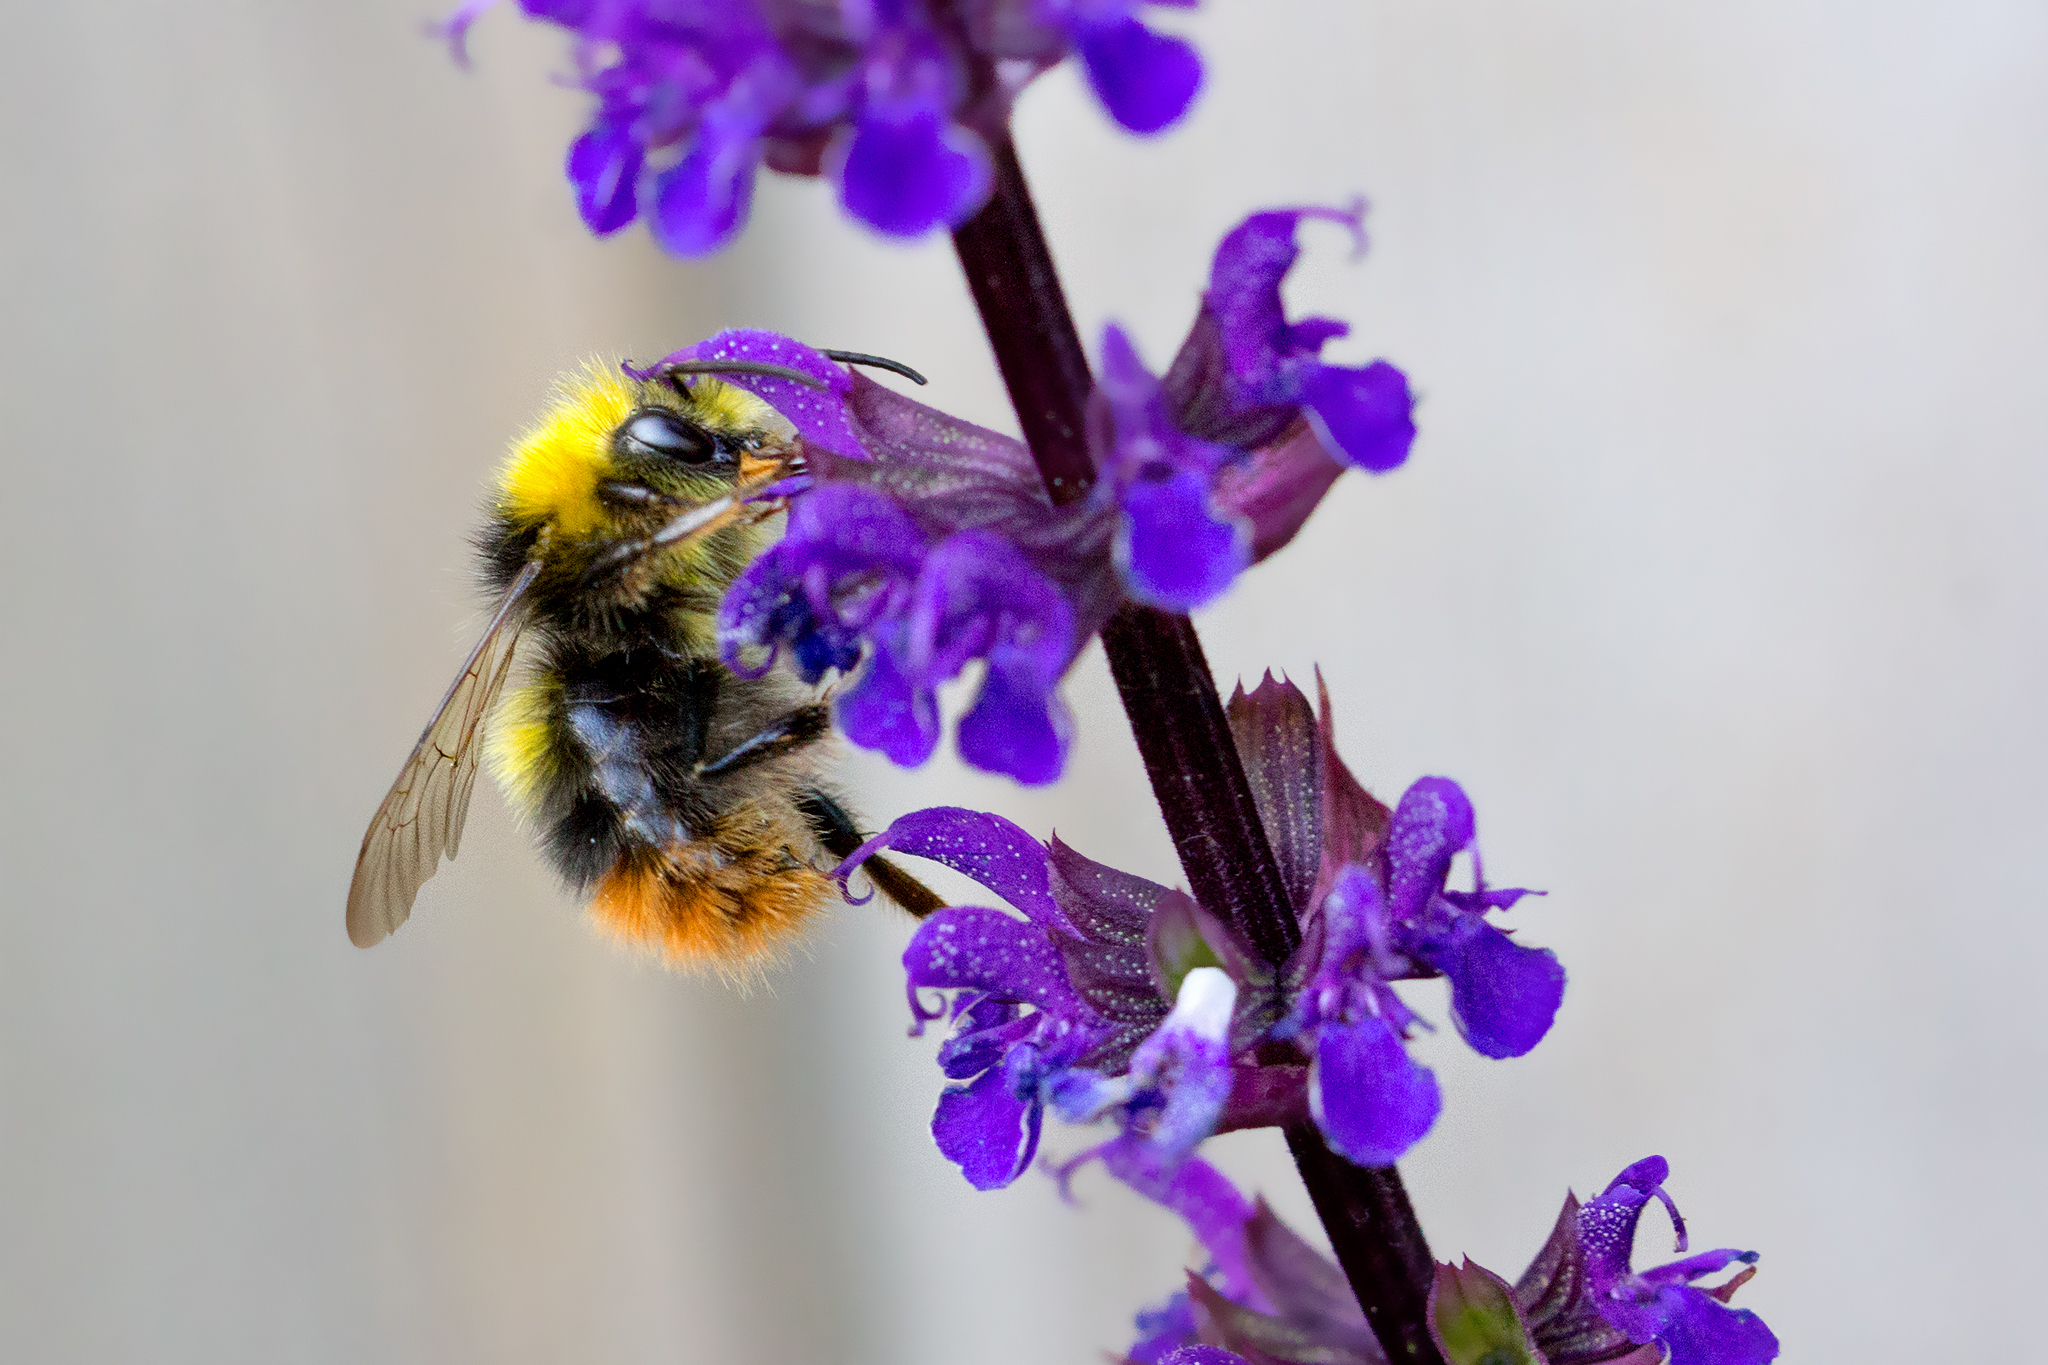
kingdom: Animalia
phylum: Arthropoda
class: Insecta
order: Hymenoptera
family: Apidae
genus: Bombus
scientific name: Bombus pratorum
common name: Early humble-bee
